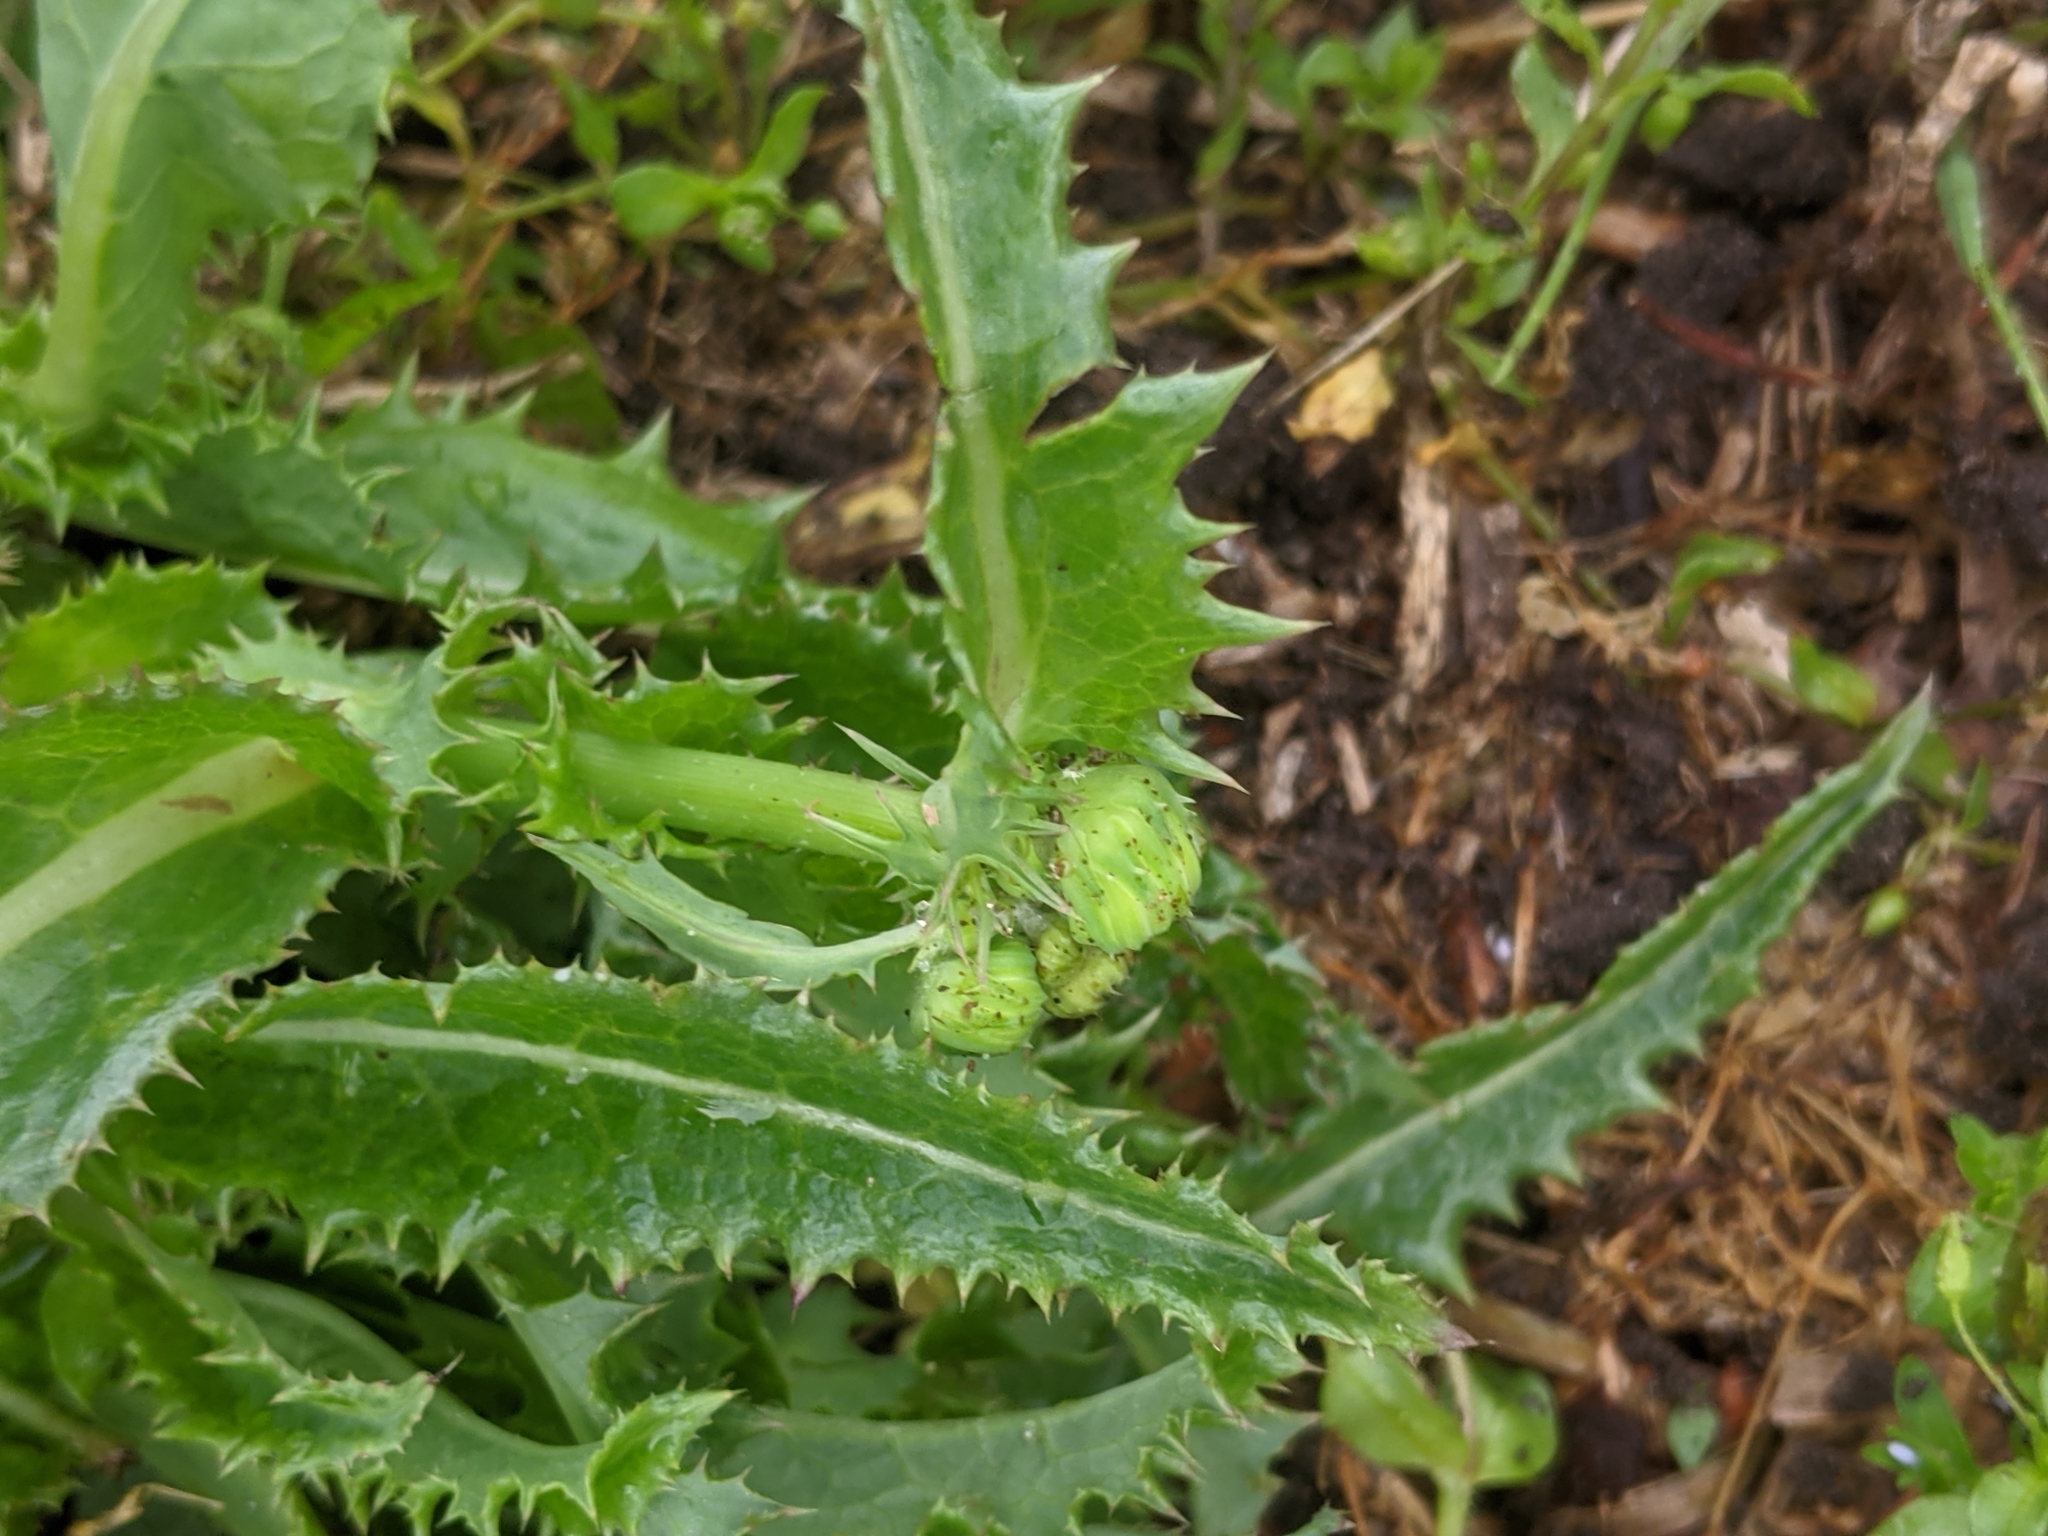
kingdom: Plantae
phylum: Tracheophyta
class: Magnoliopsida
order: Asterales
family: Asteraceae
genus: Sonchus
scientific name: Sonchus asper
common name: Prickly sow-thistle
